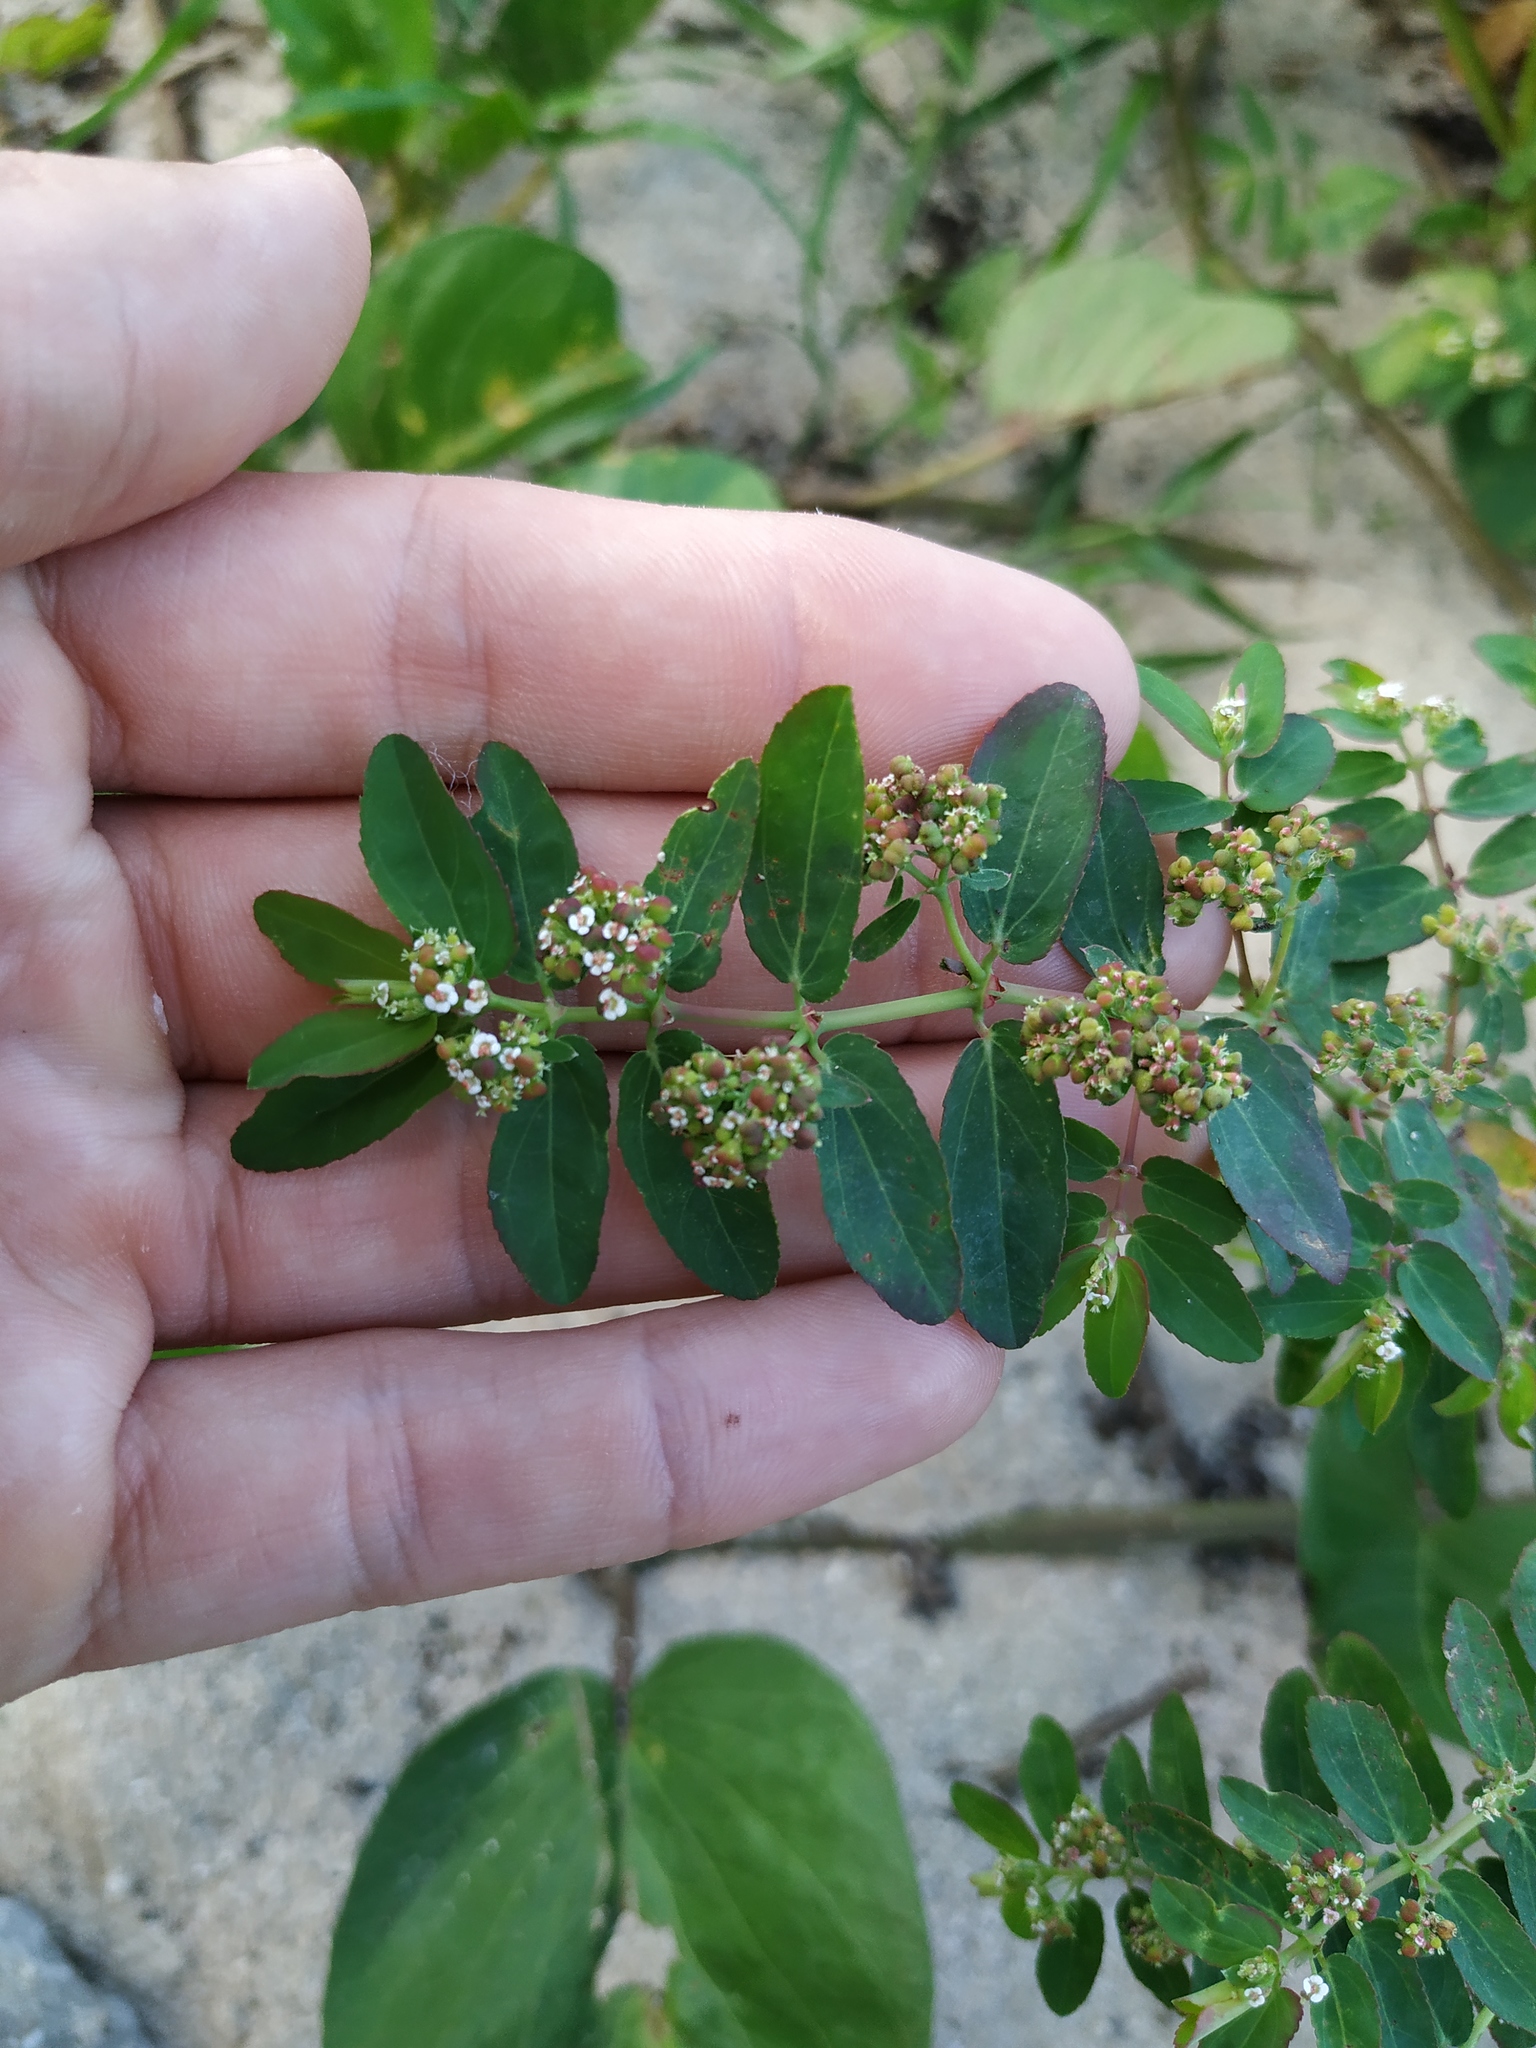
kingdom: Plantae
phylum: Tracheophyta
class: Magnoliopsida
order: Malpighiales
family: Euphorbiaceae
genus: Euphorbia
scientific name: Euphorbia hypericifolia
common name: Graceful sandmat
